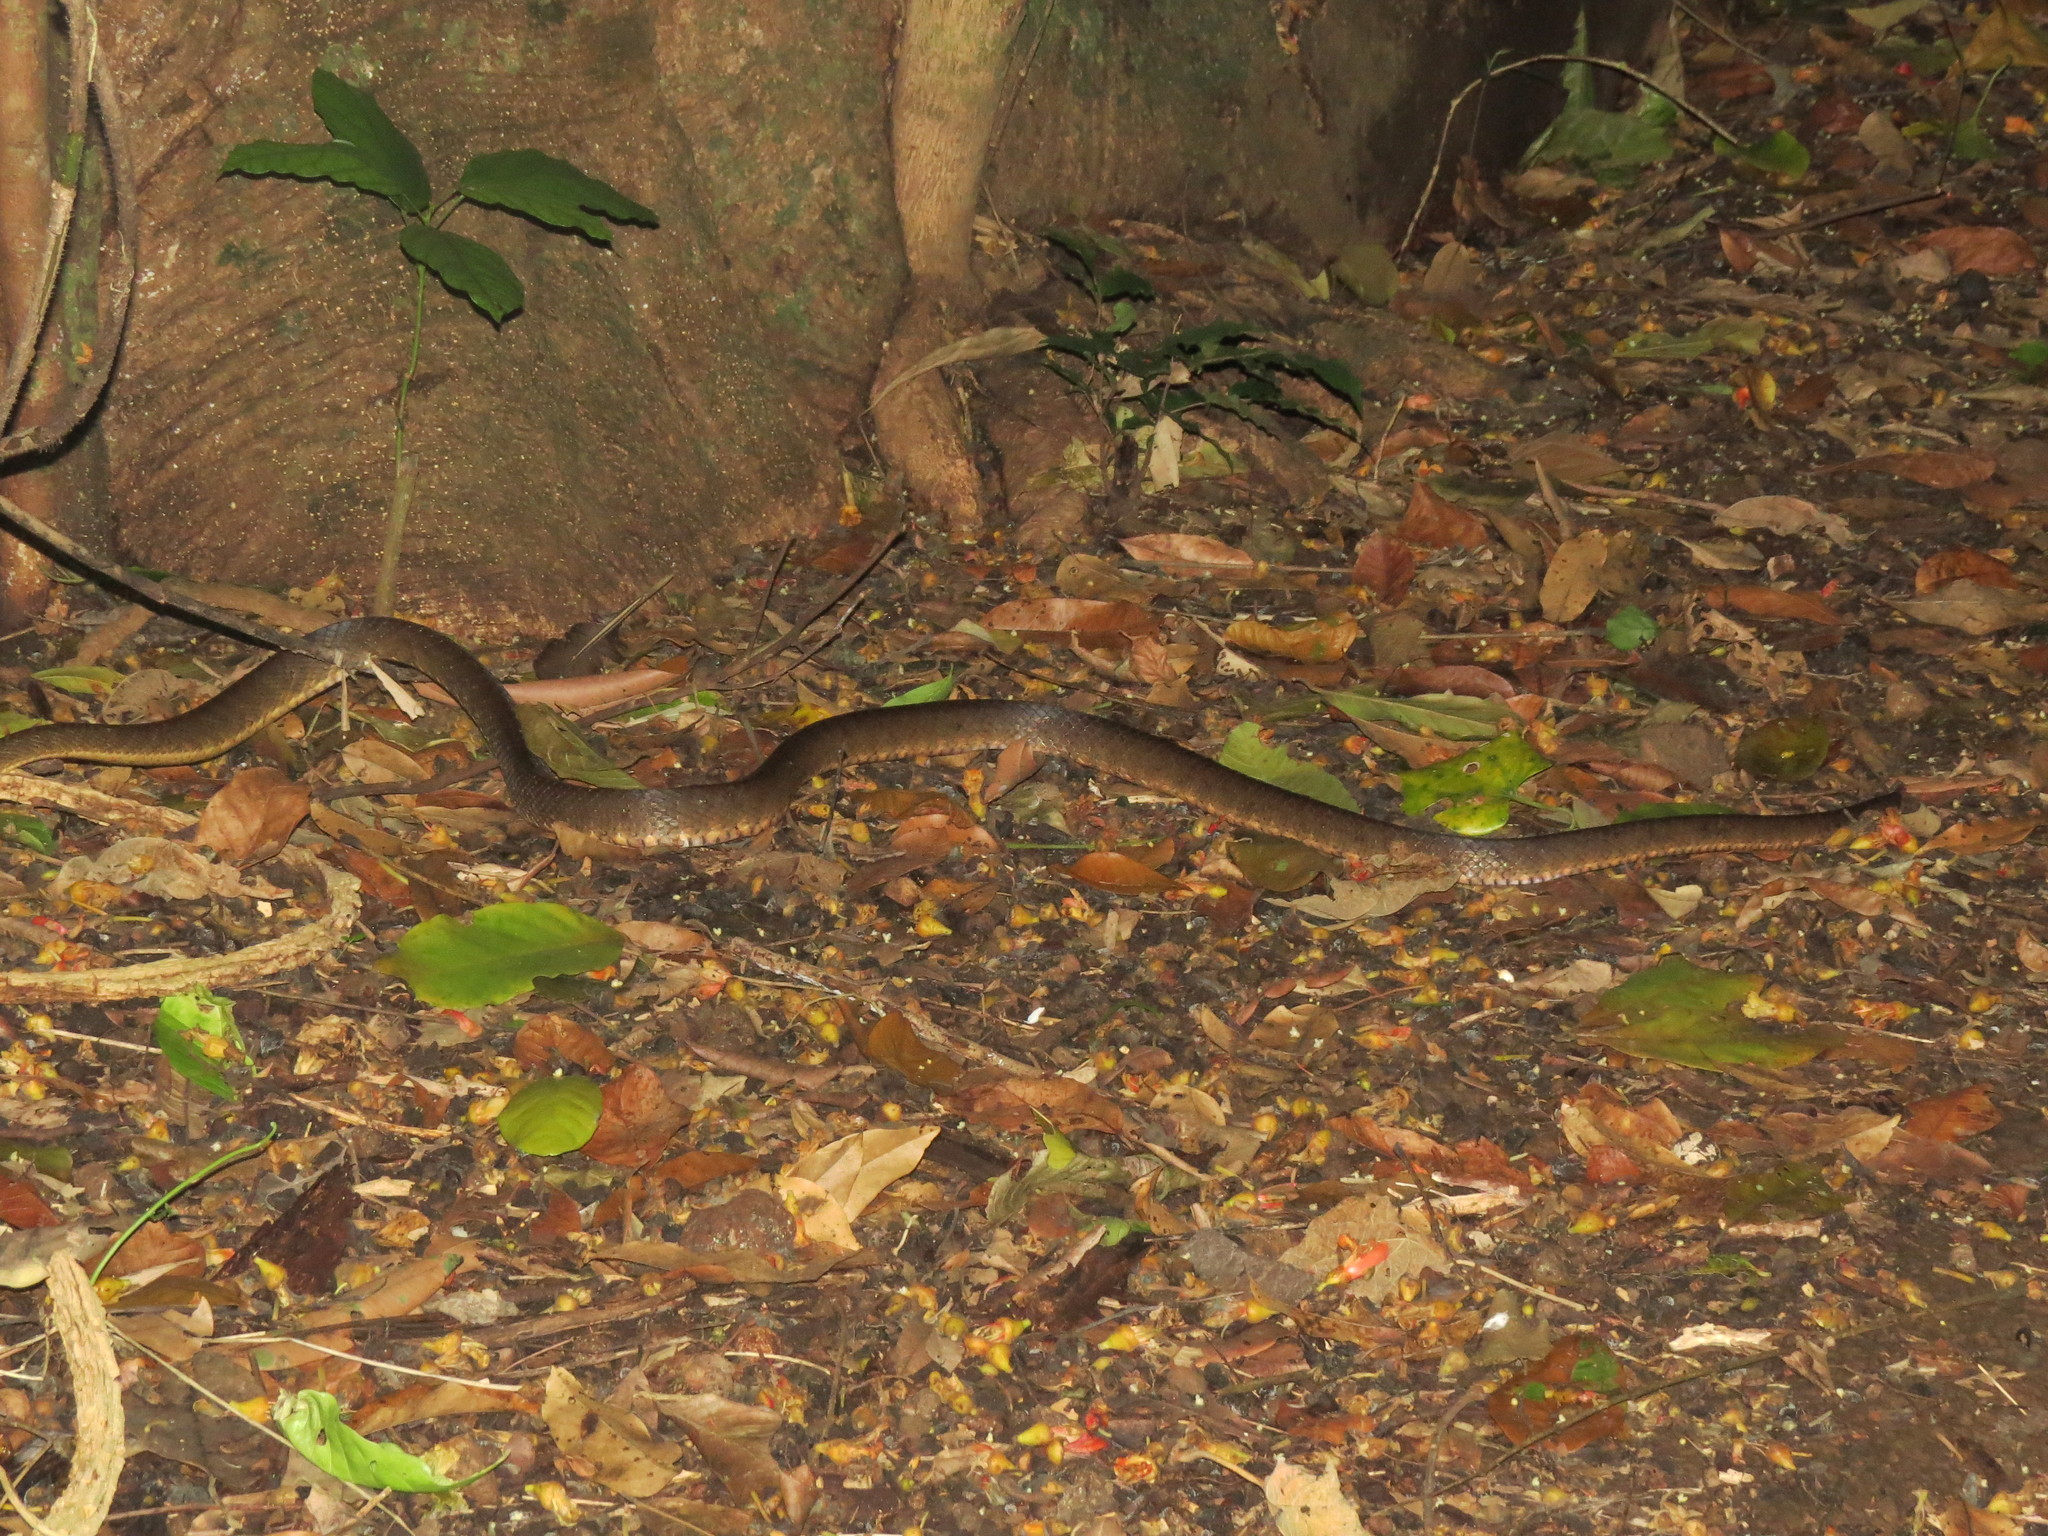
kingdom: Animalia
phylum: Chordata
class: Squamata
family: Colubridae
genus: Boiga
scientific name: Boiga irregularis
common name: Brown tree snake
